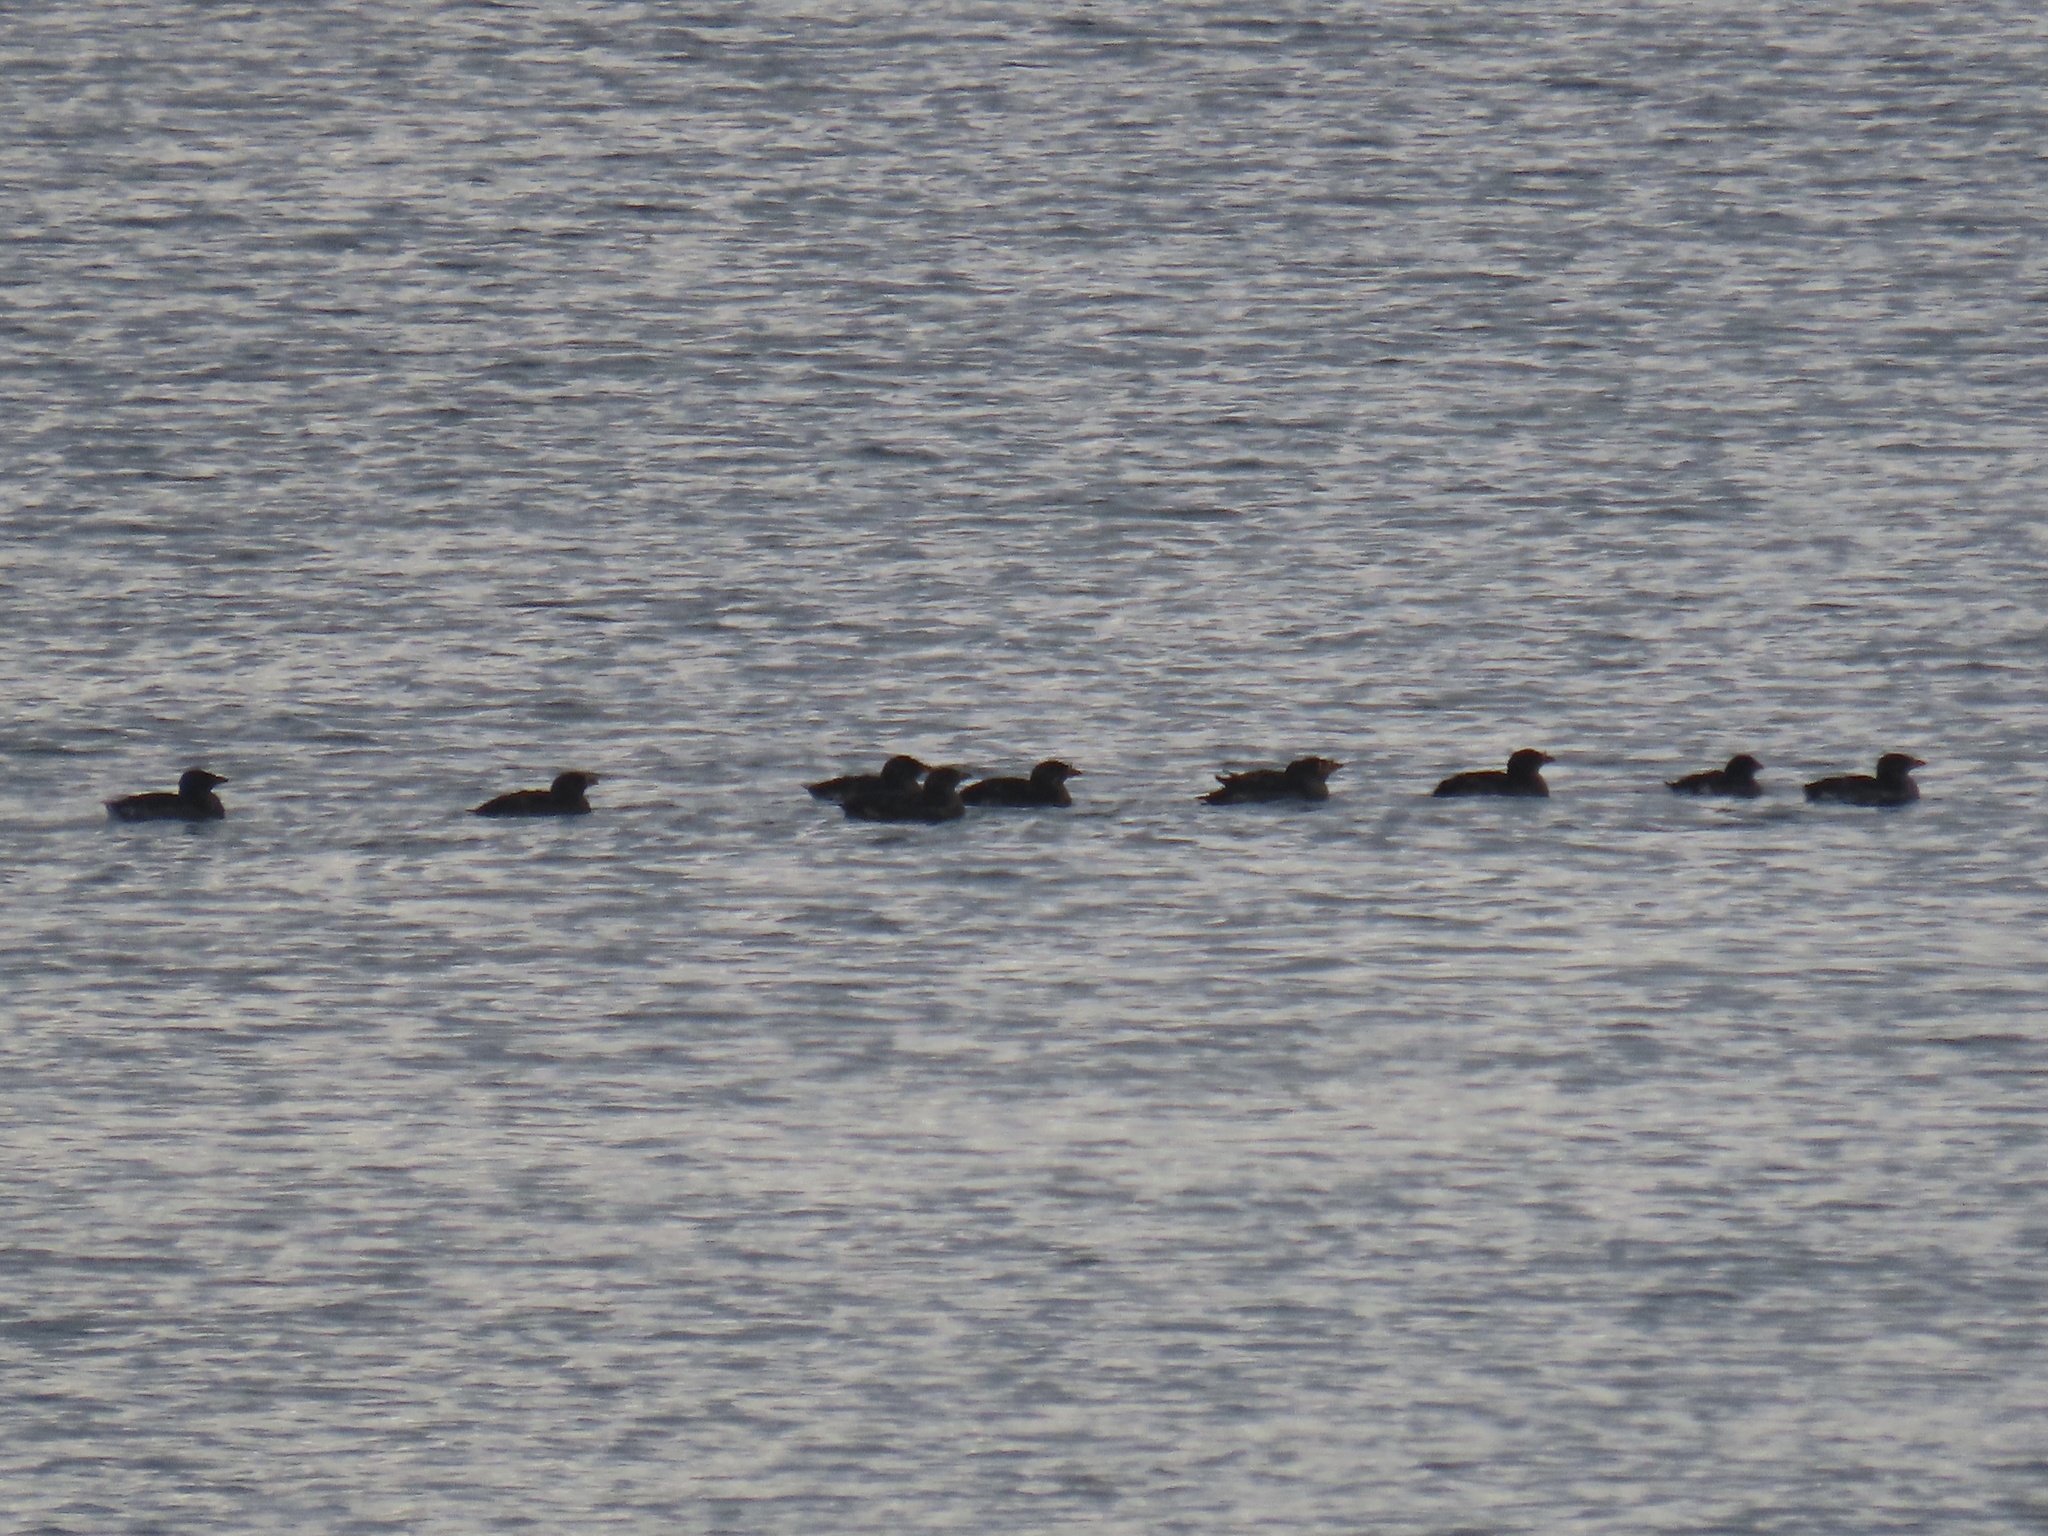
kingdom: Animalia
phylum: Chordata
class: Aves
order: Charadriiformes
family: Alcidae
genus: Cerorhinca
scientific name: Cerorhinca monocerata
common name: Rhinoceros auklet
